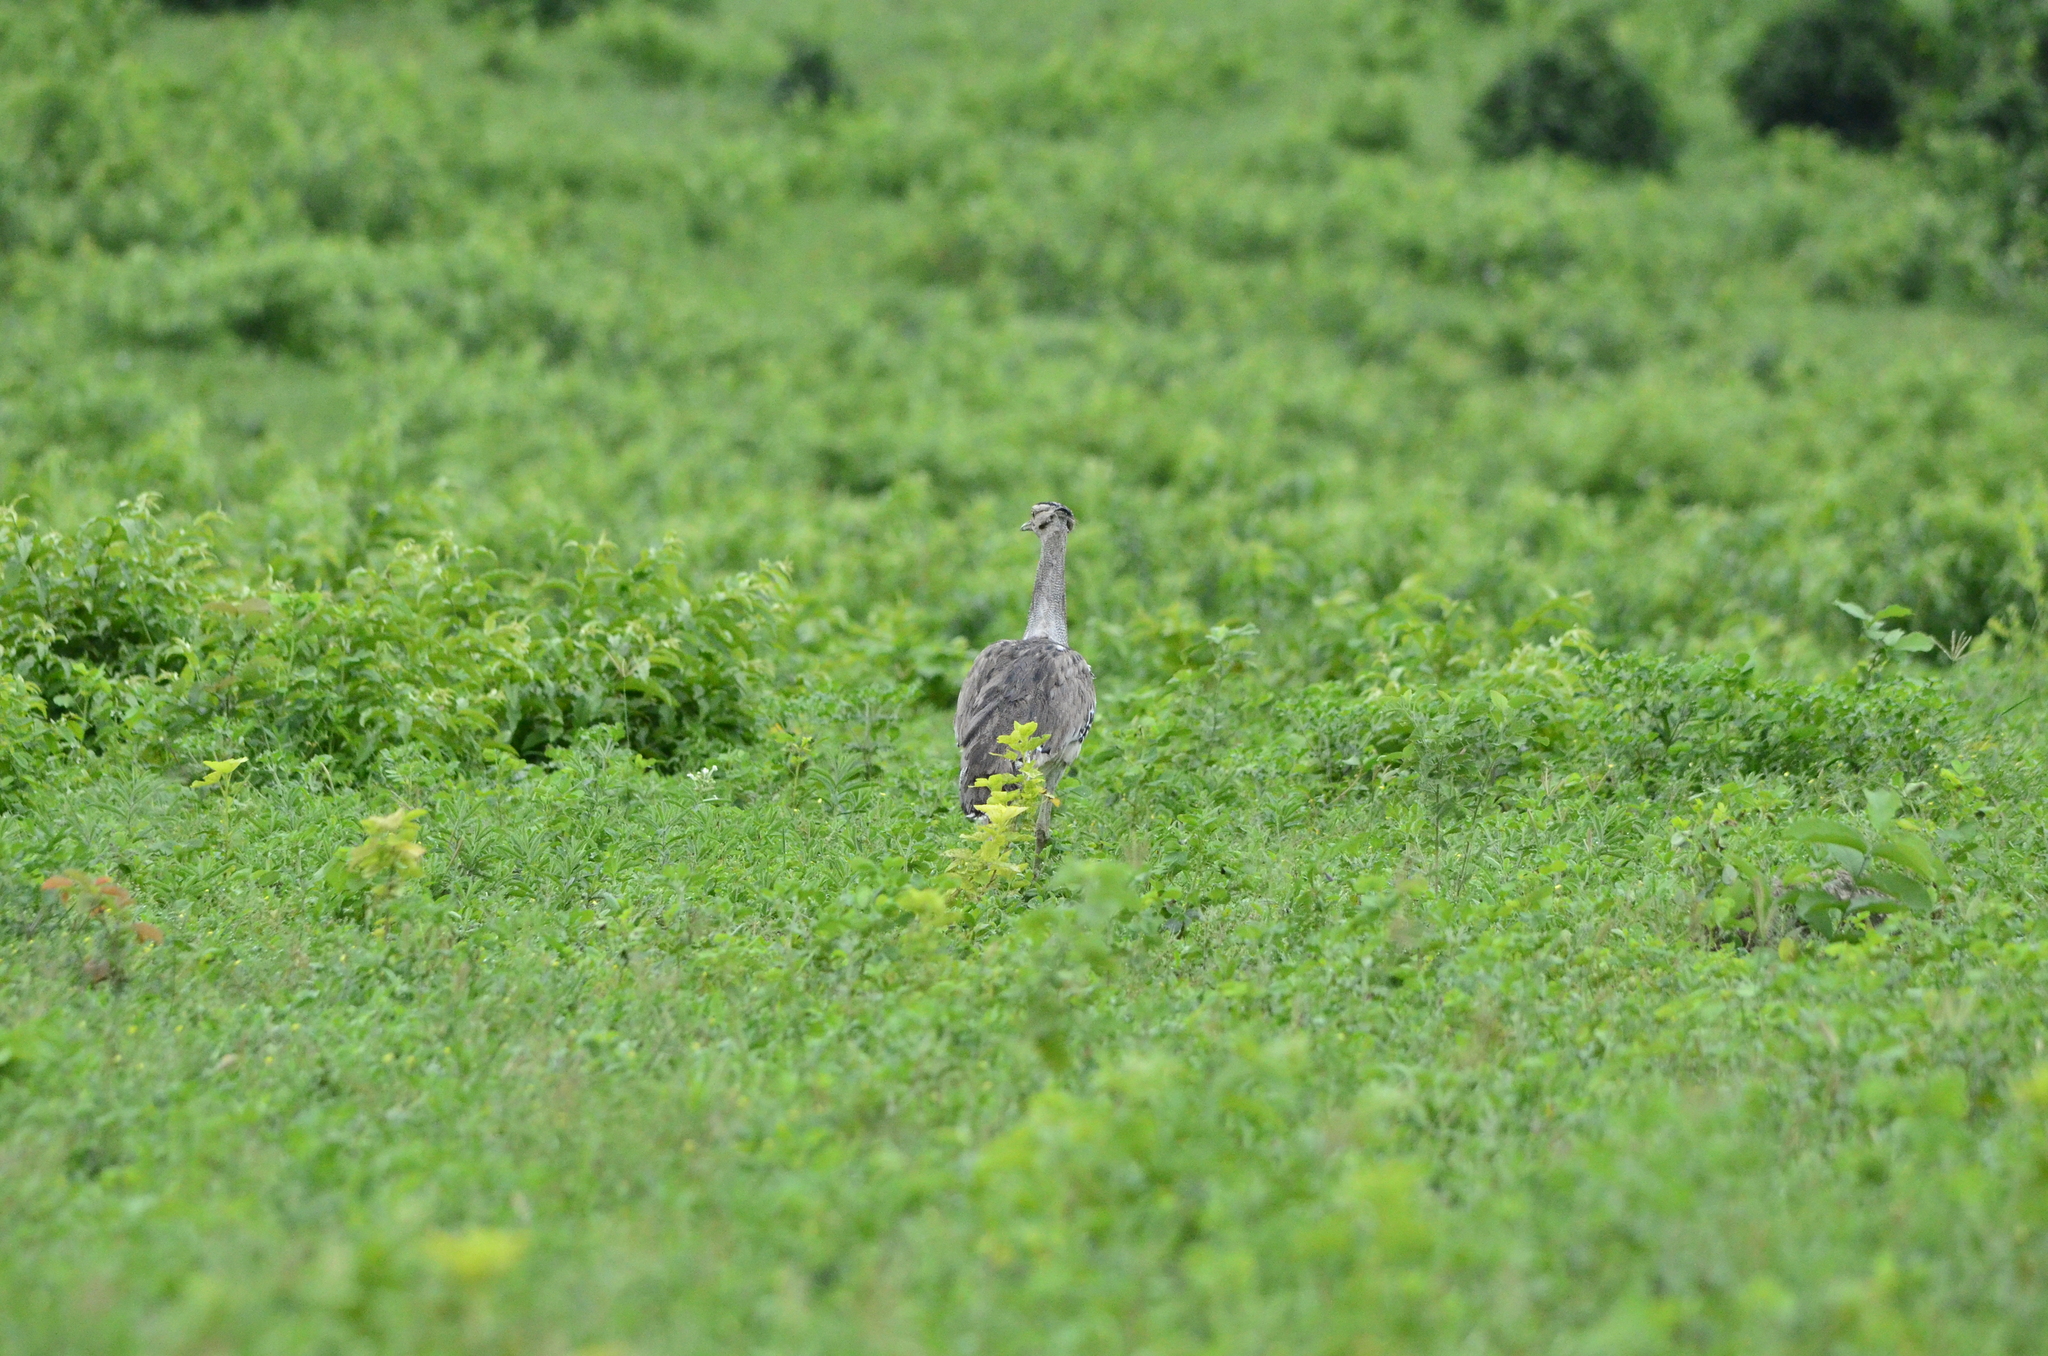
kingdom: Animalia
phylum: Chordata
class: Aves
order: Otidiformes
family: Otididae
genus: Ardeotis
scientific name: Ardeotis kori
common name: Kori bustard
